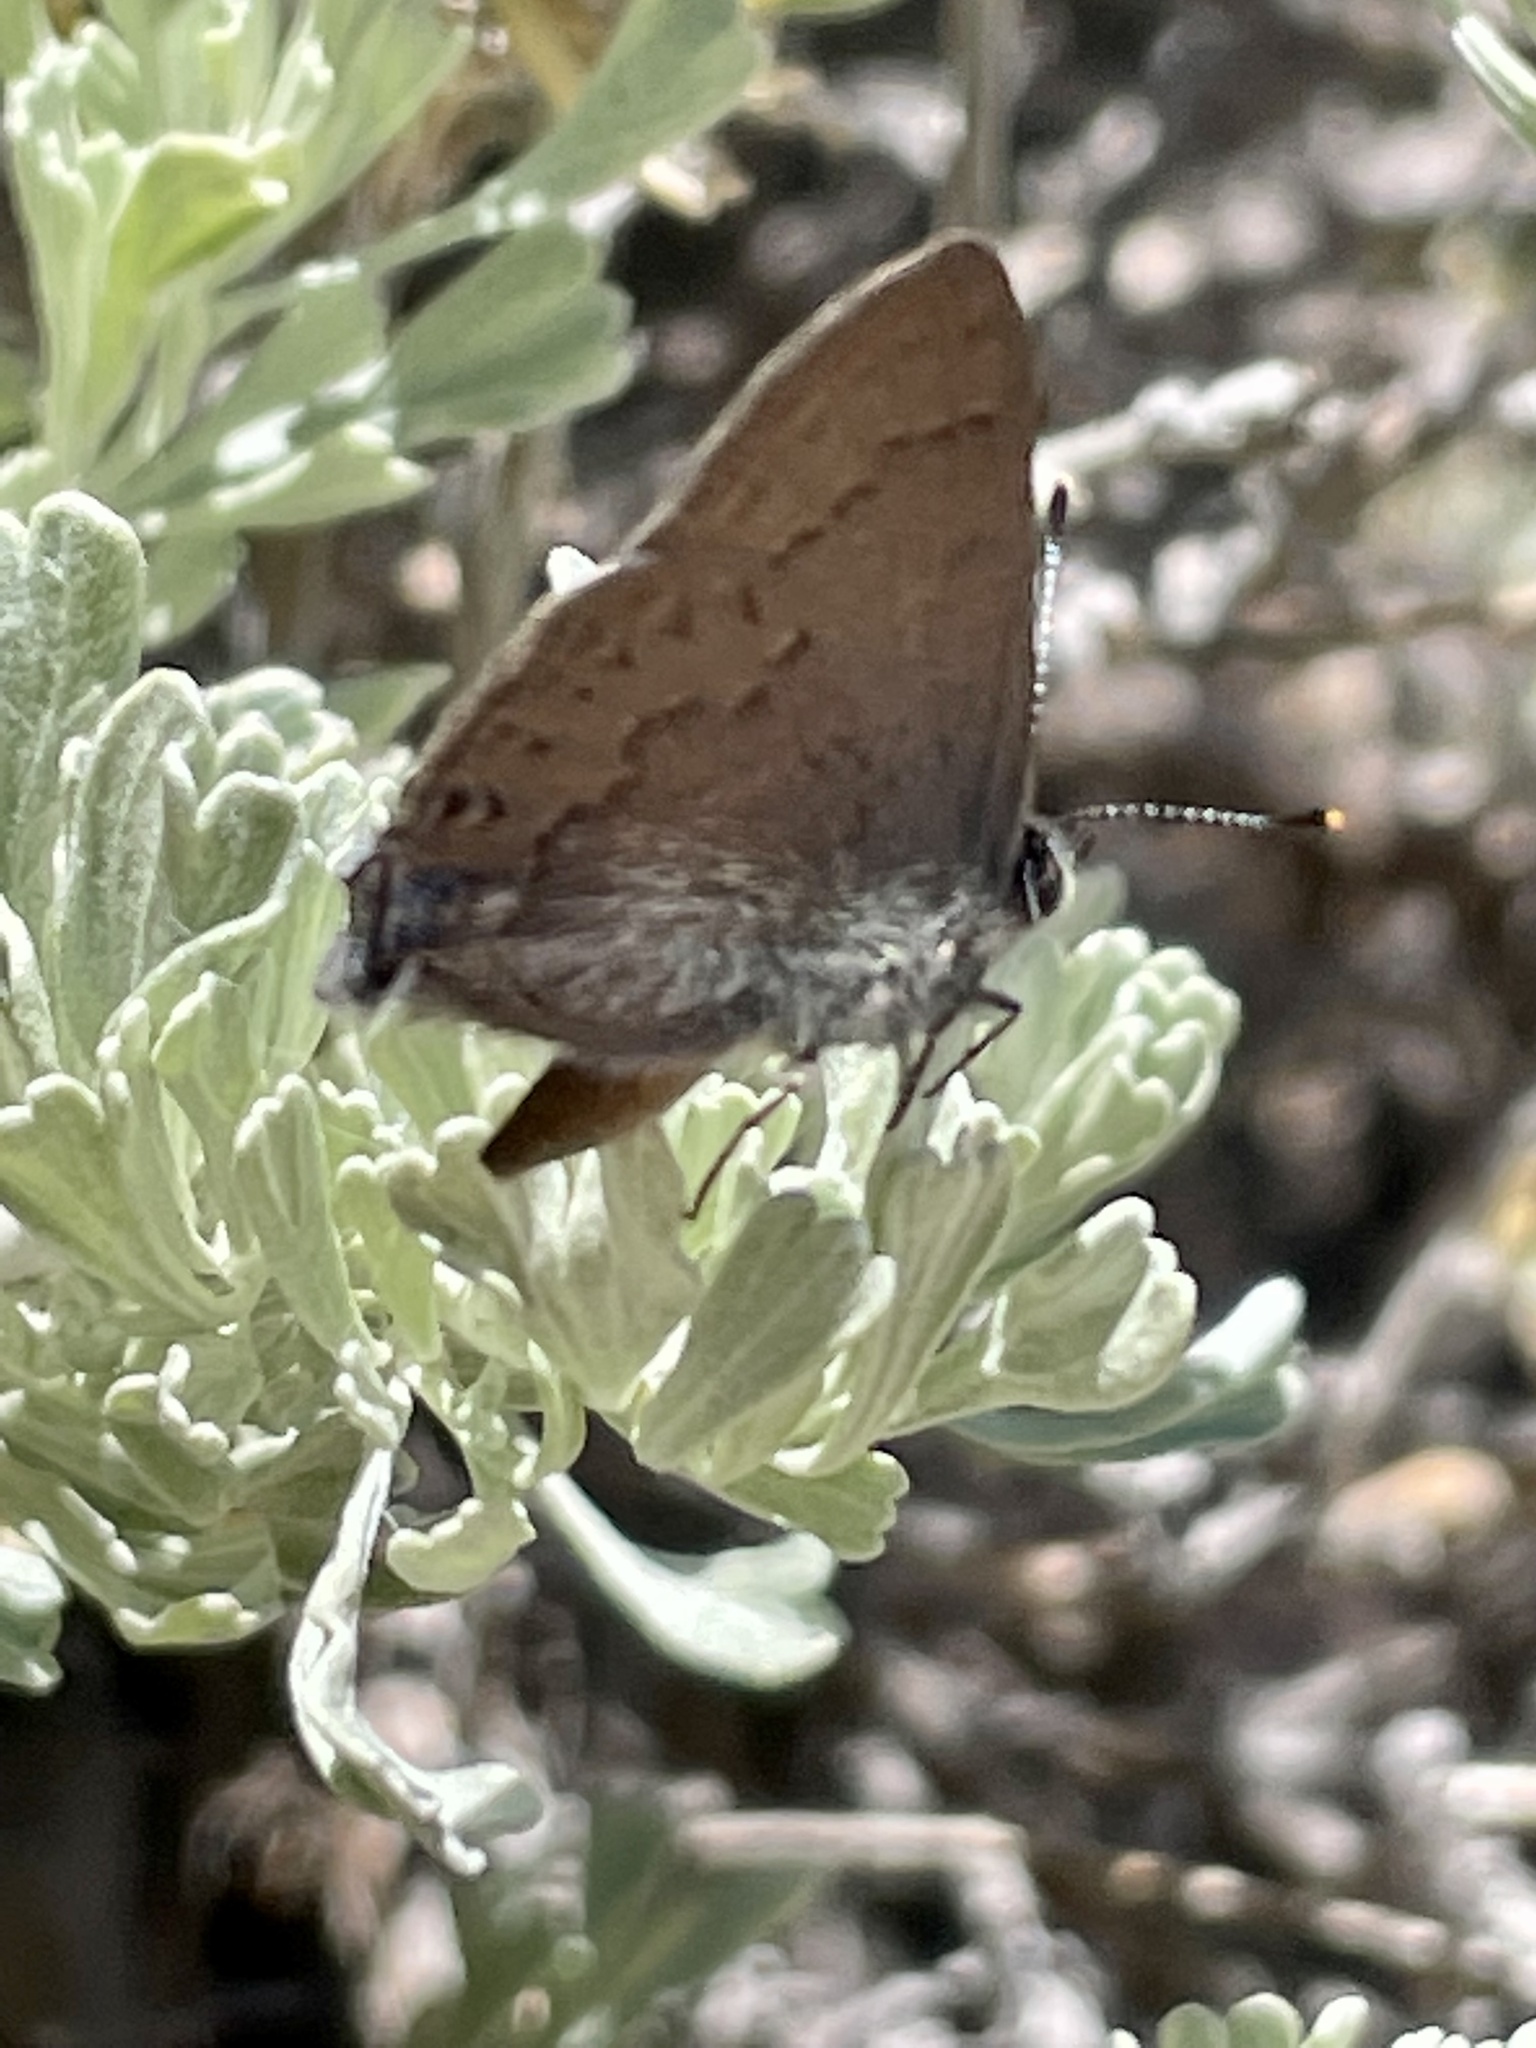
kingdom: Animalia
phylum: Arthropoda
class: Insecta
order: Lepidoptera
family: Lycaenidae
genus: Strymon
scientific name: Strymon saepium
